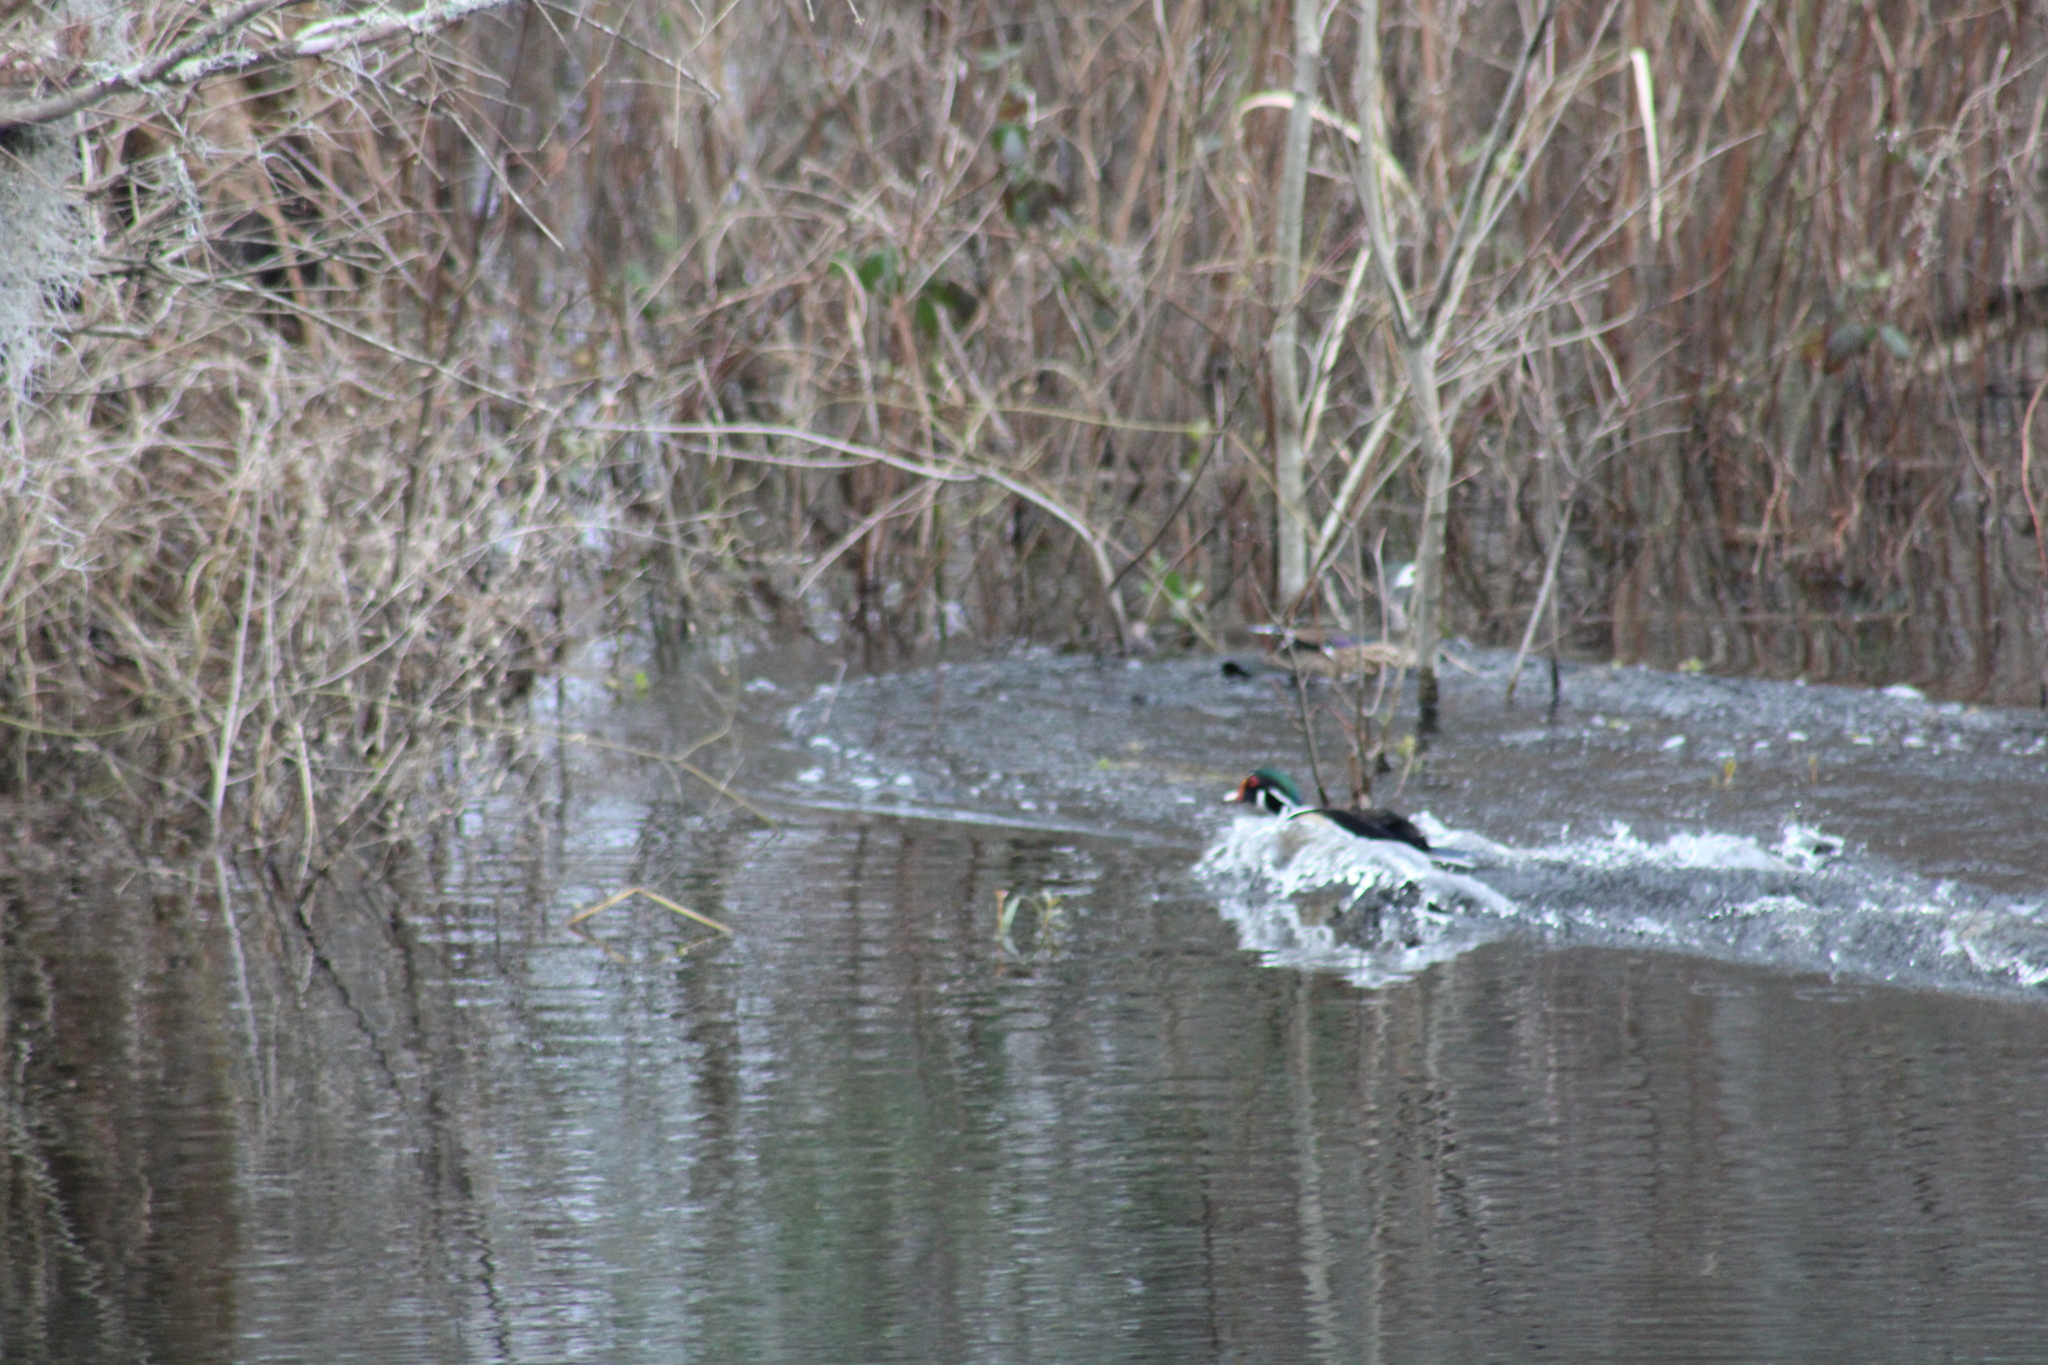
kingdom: Animalia
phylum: Chordata
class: Aves
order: Anseriformes
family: Anatidae
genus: Aix
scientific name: Aix sponsa
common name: Wood duck
